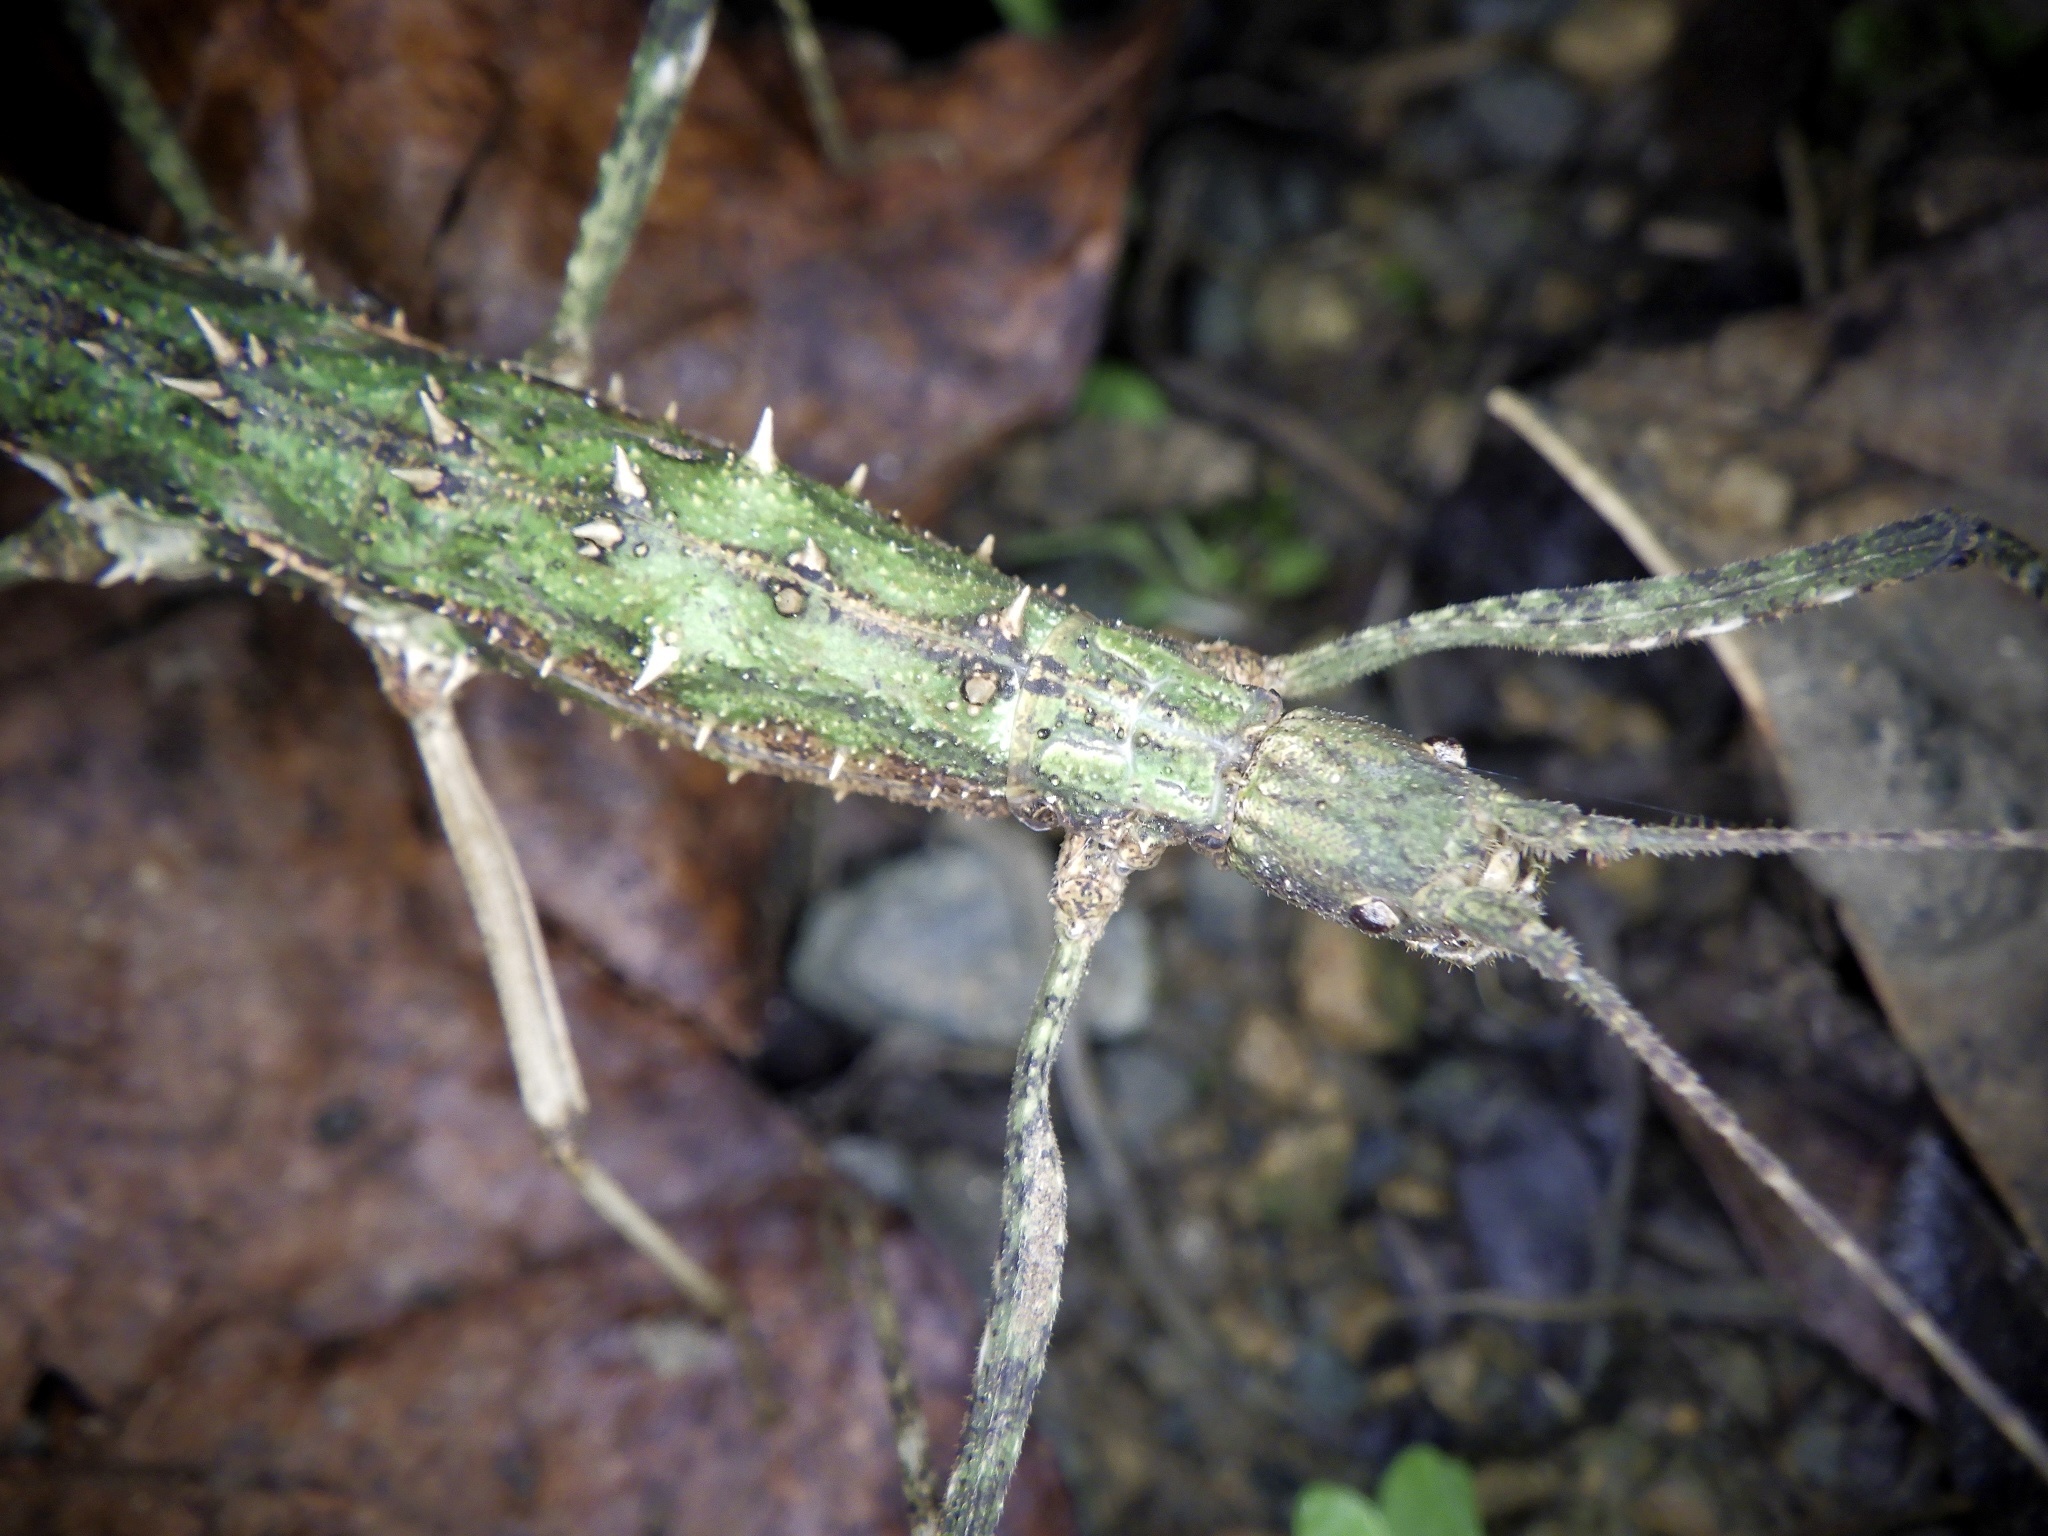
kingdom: Animalia
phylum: Arthropoda
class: Insecta
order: Phasmida
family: Lonchodidae
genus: Neohirasea
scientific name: Neohirasea japonica
